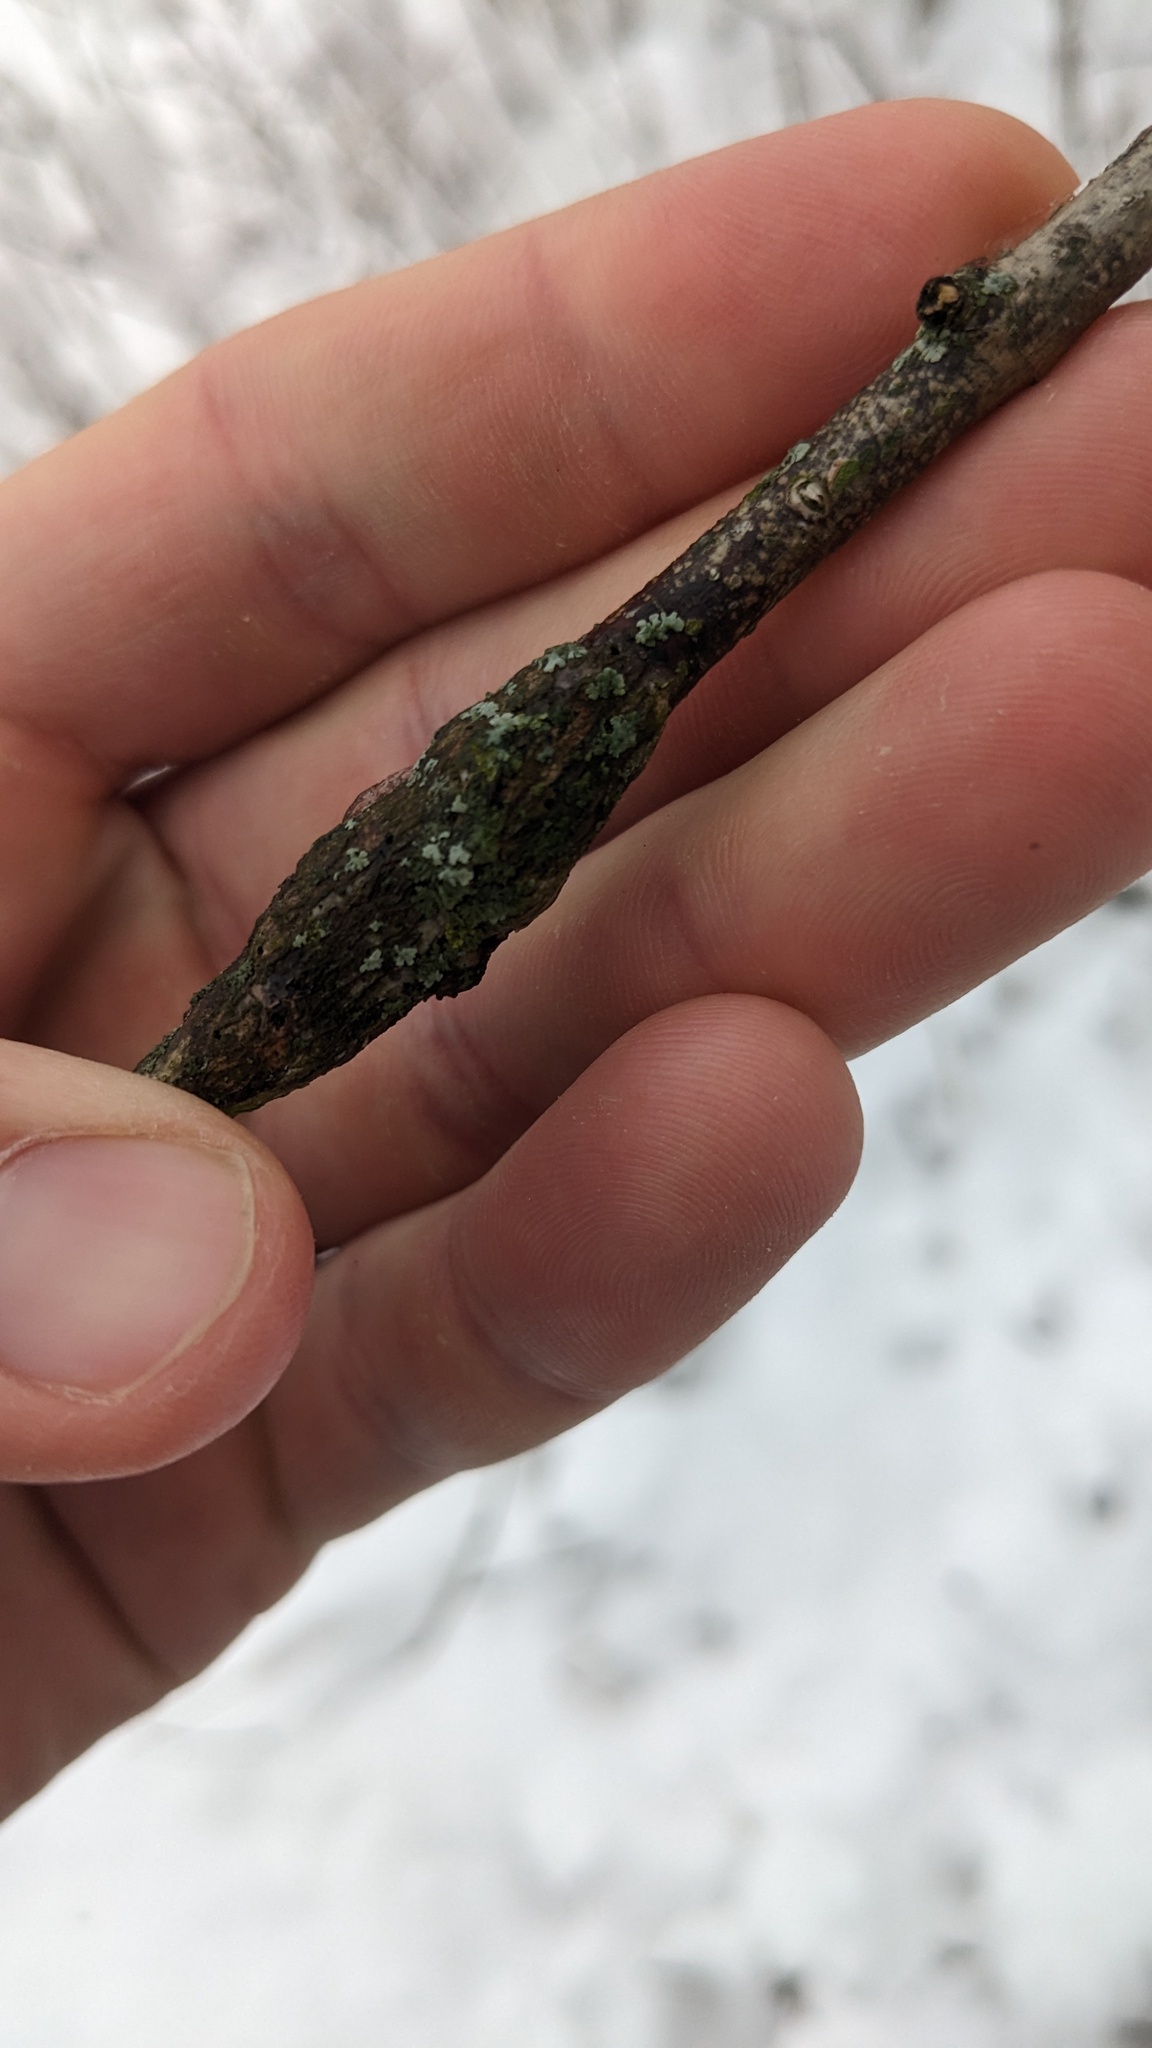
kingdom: Animalia
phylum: Arthropoda
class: Insecta
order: Diptera
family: Cecidomyiidae
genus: Neolasioptera
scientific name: Neolasioptera cornicola
